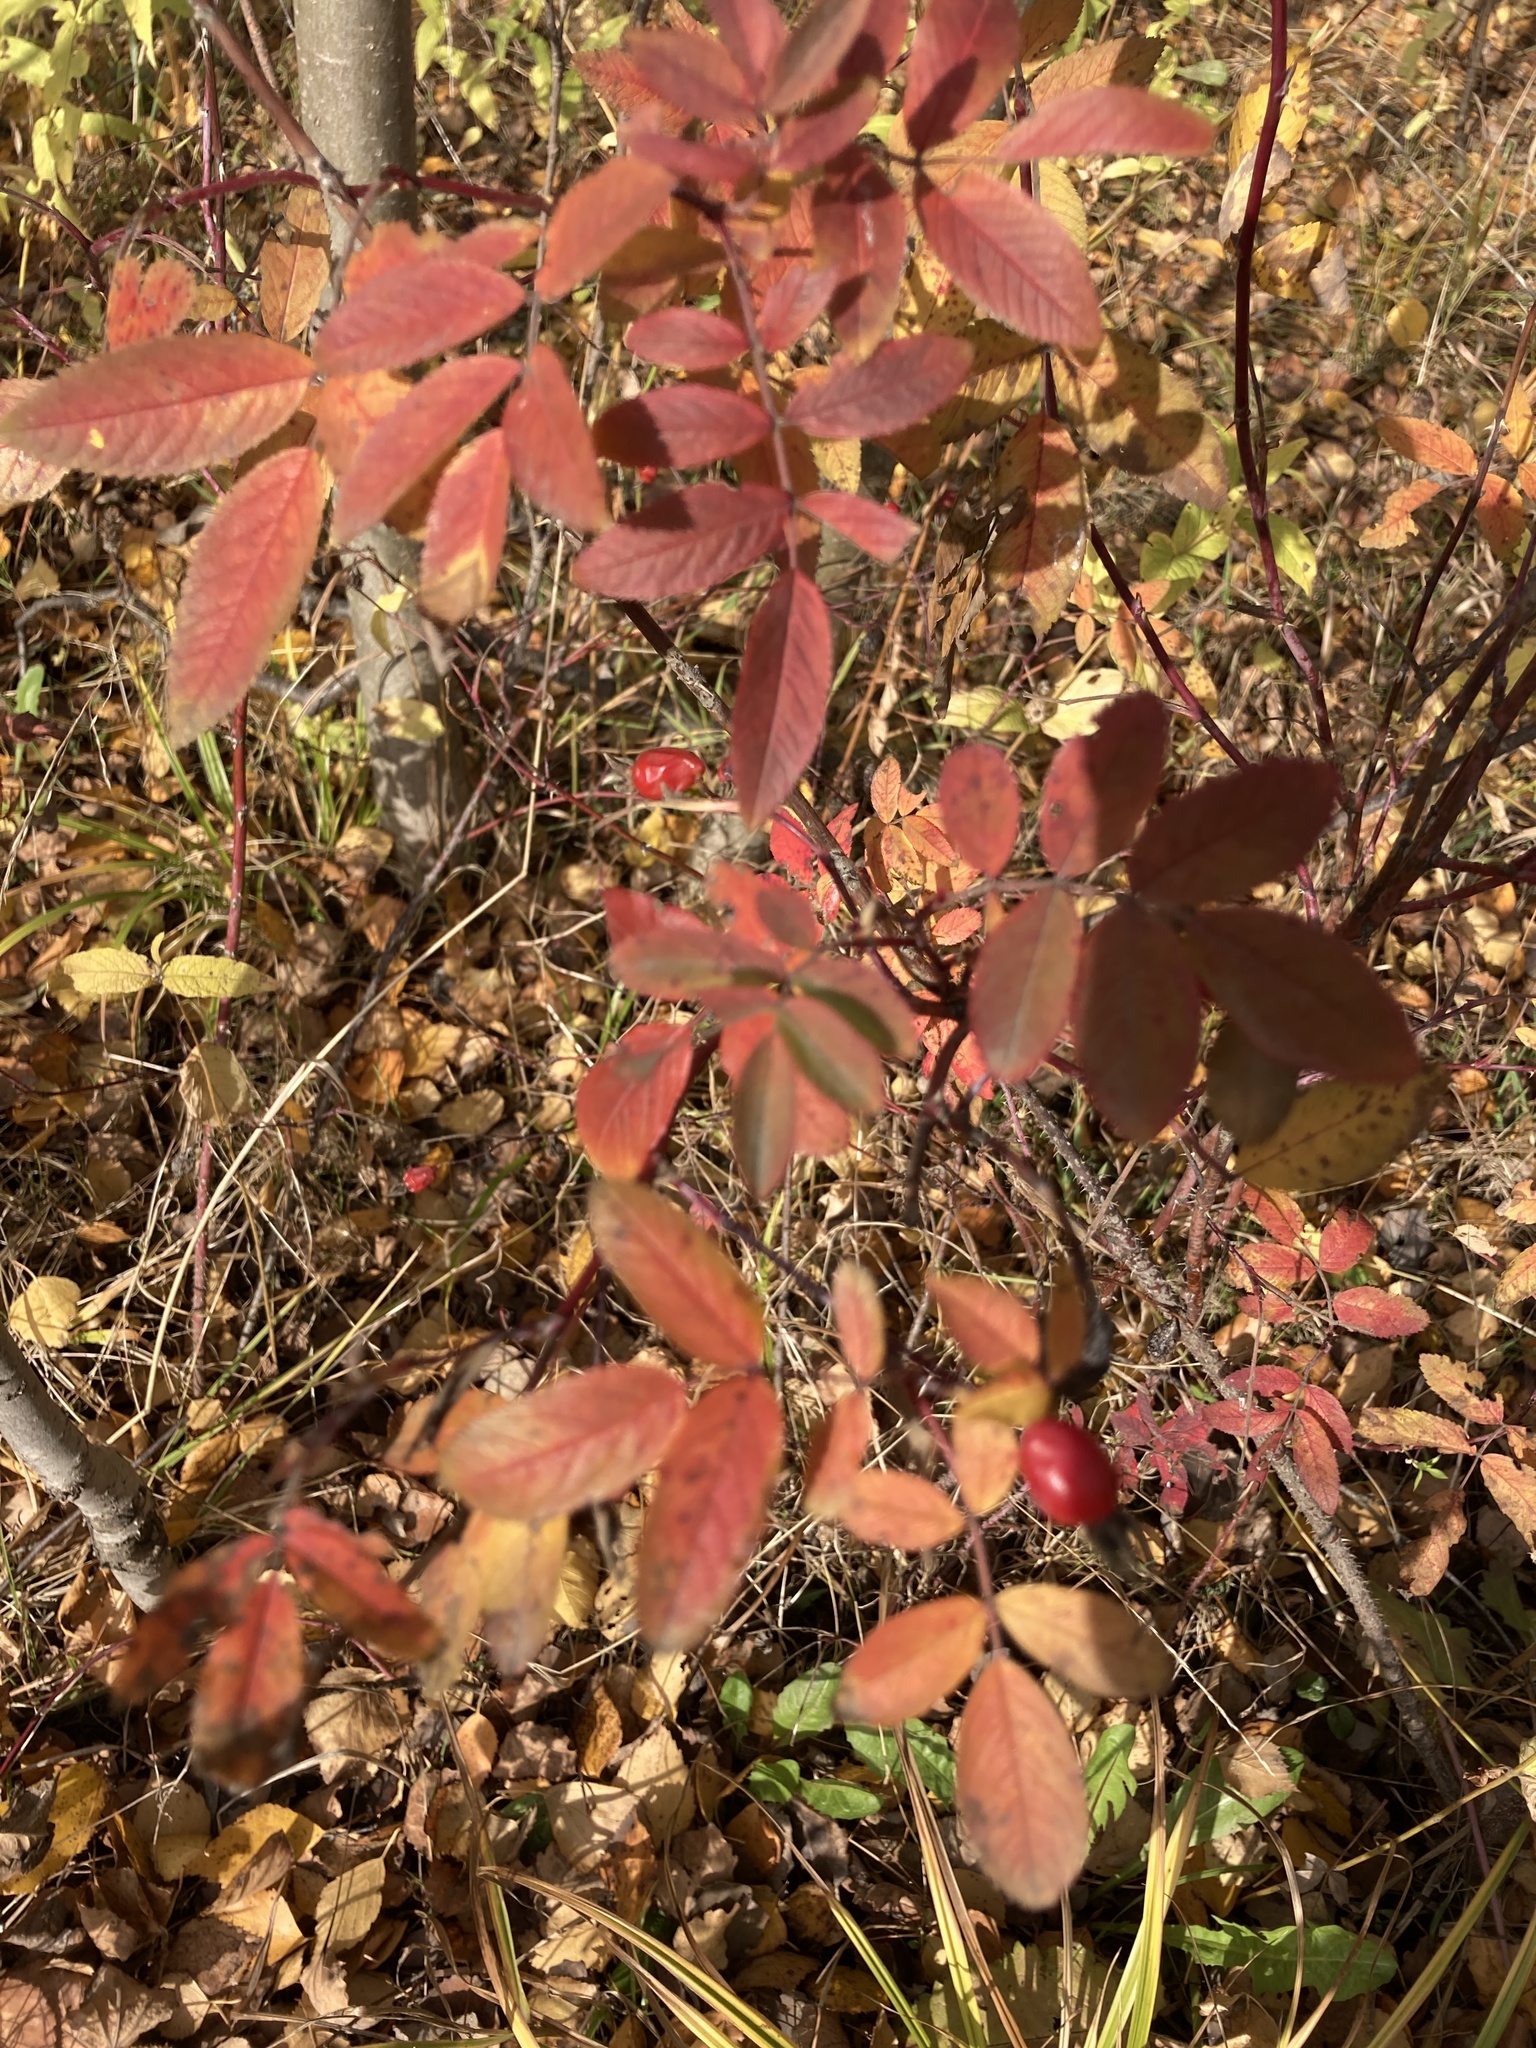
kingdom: Plantae
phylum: Tracheophyta
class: Magnoliopsida
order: Rosales
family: Rosaceae
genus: Rosa
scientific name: Rosa majalis
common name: Cinnamon rose
